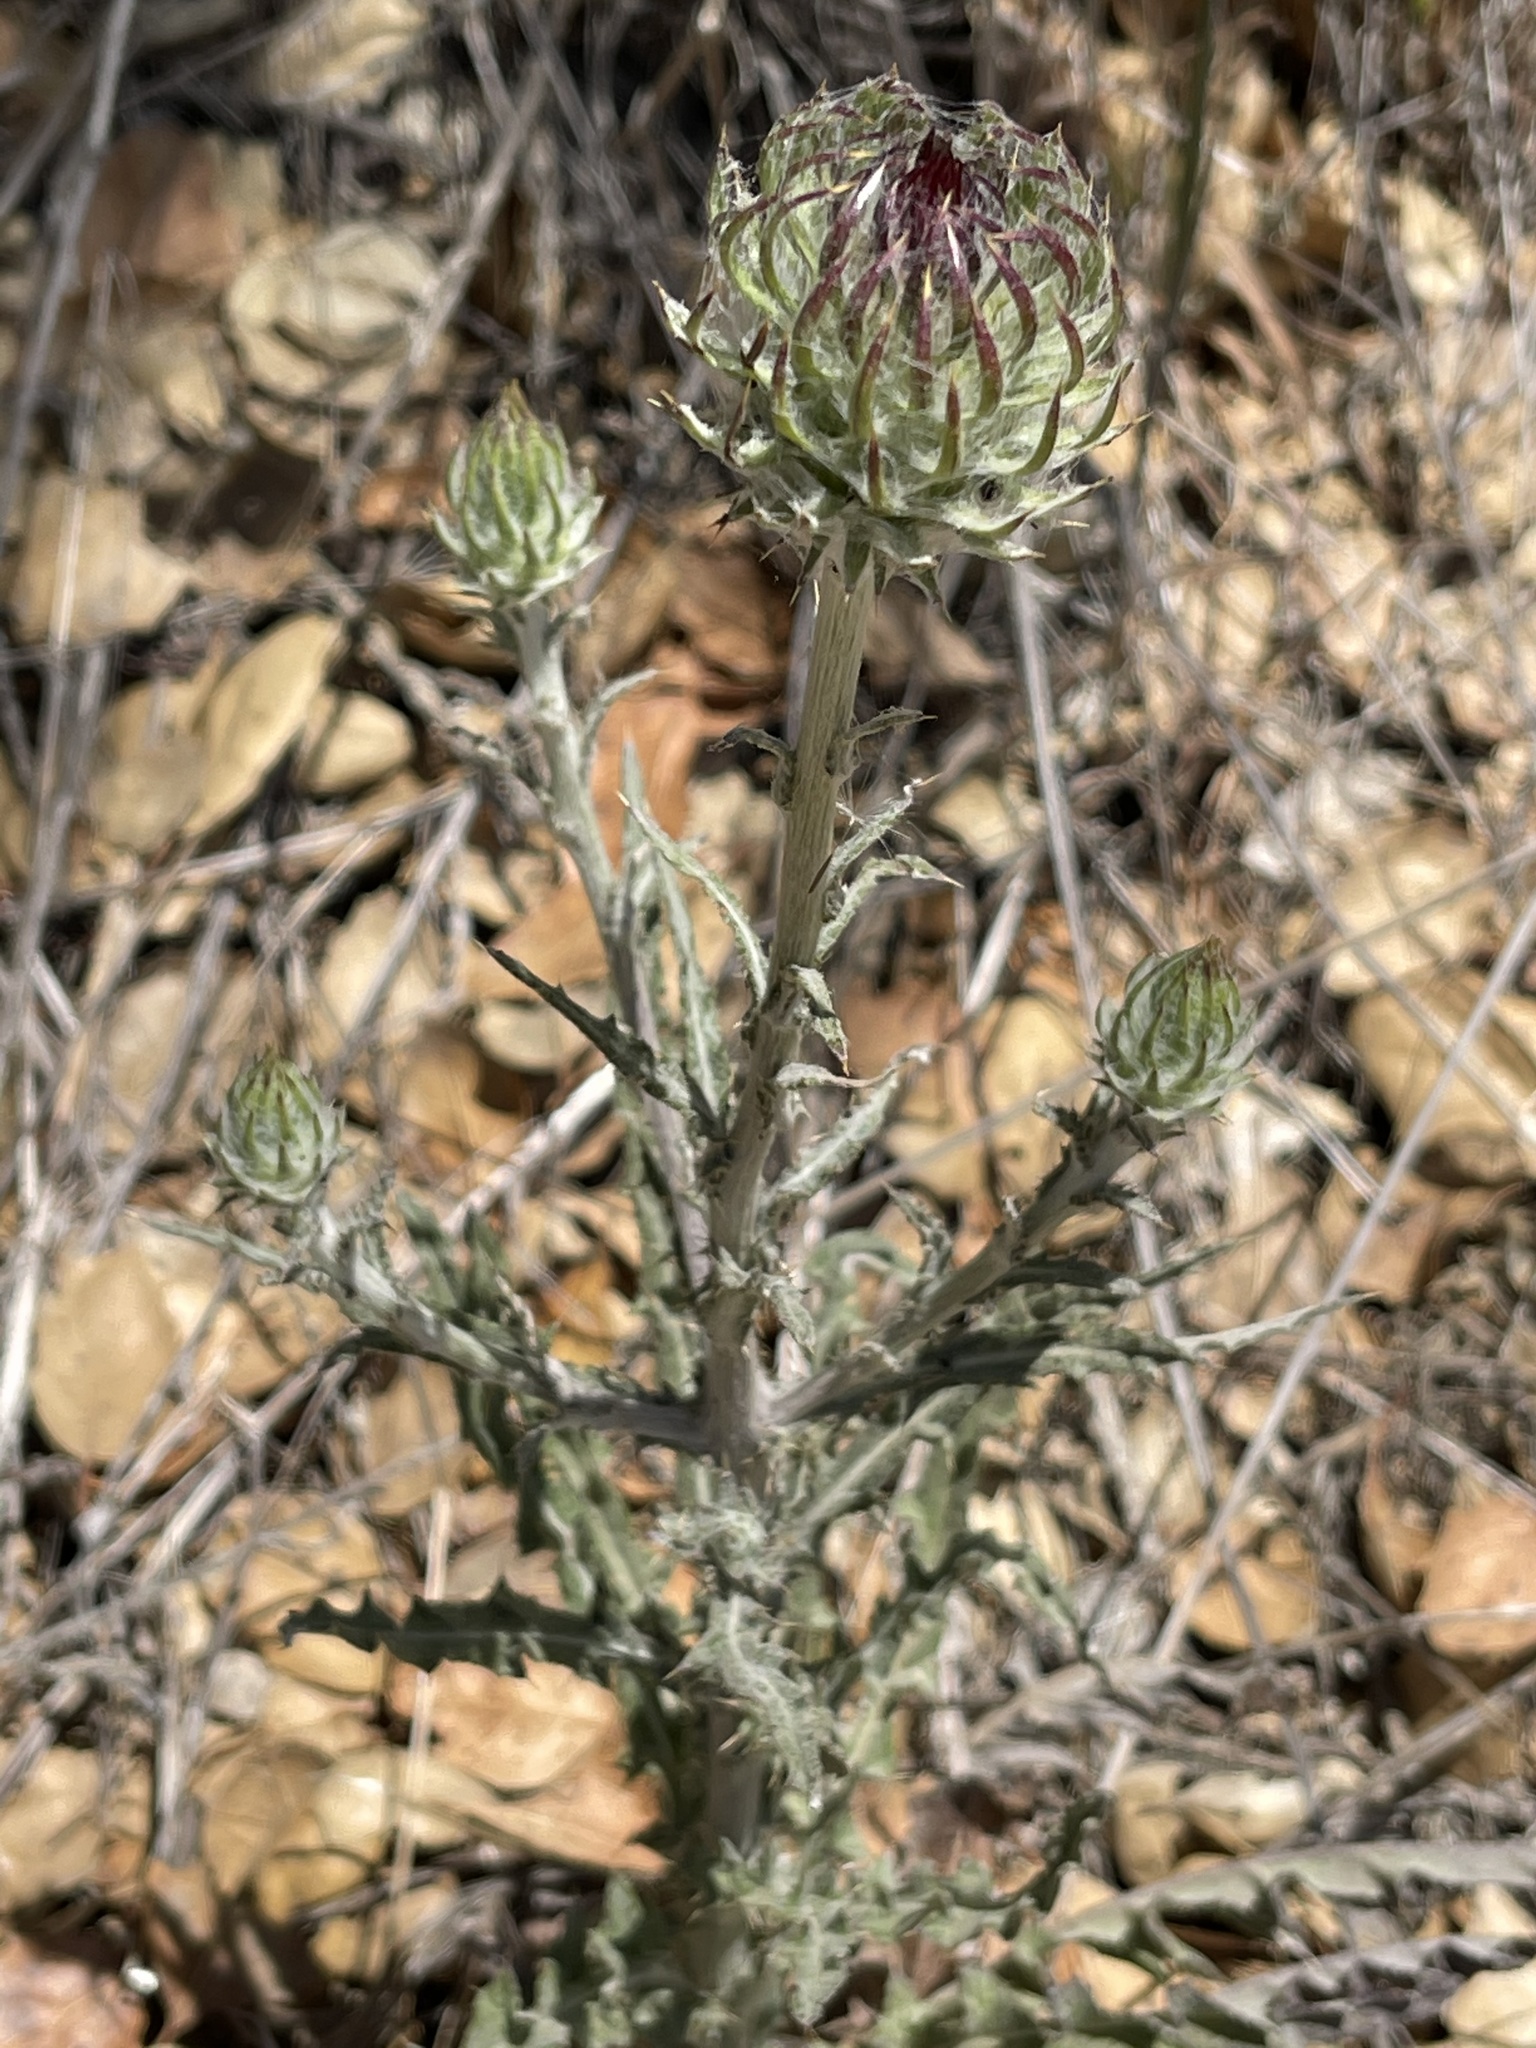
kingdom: Plantae
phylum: Tracheophyta
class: Magnoliopsida
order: Asterales
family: Asteraceae
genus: Cirsium
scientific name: Cirsium occidentale
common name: Western thistle
